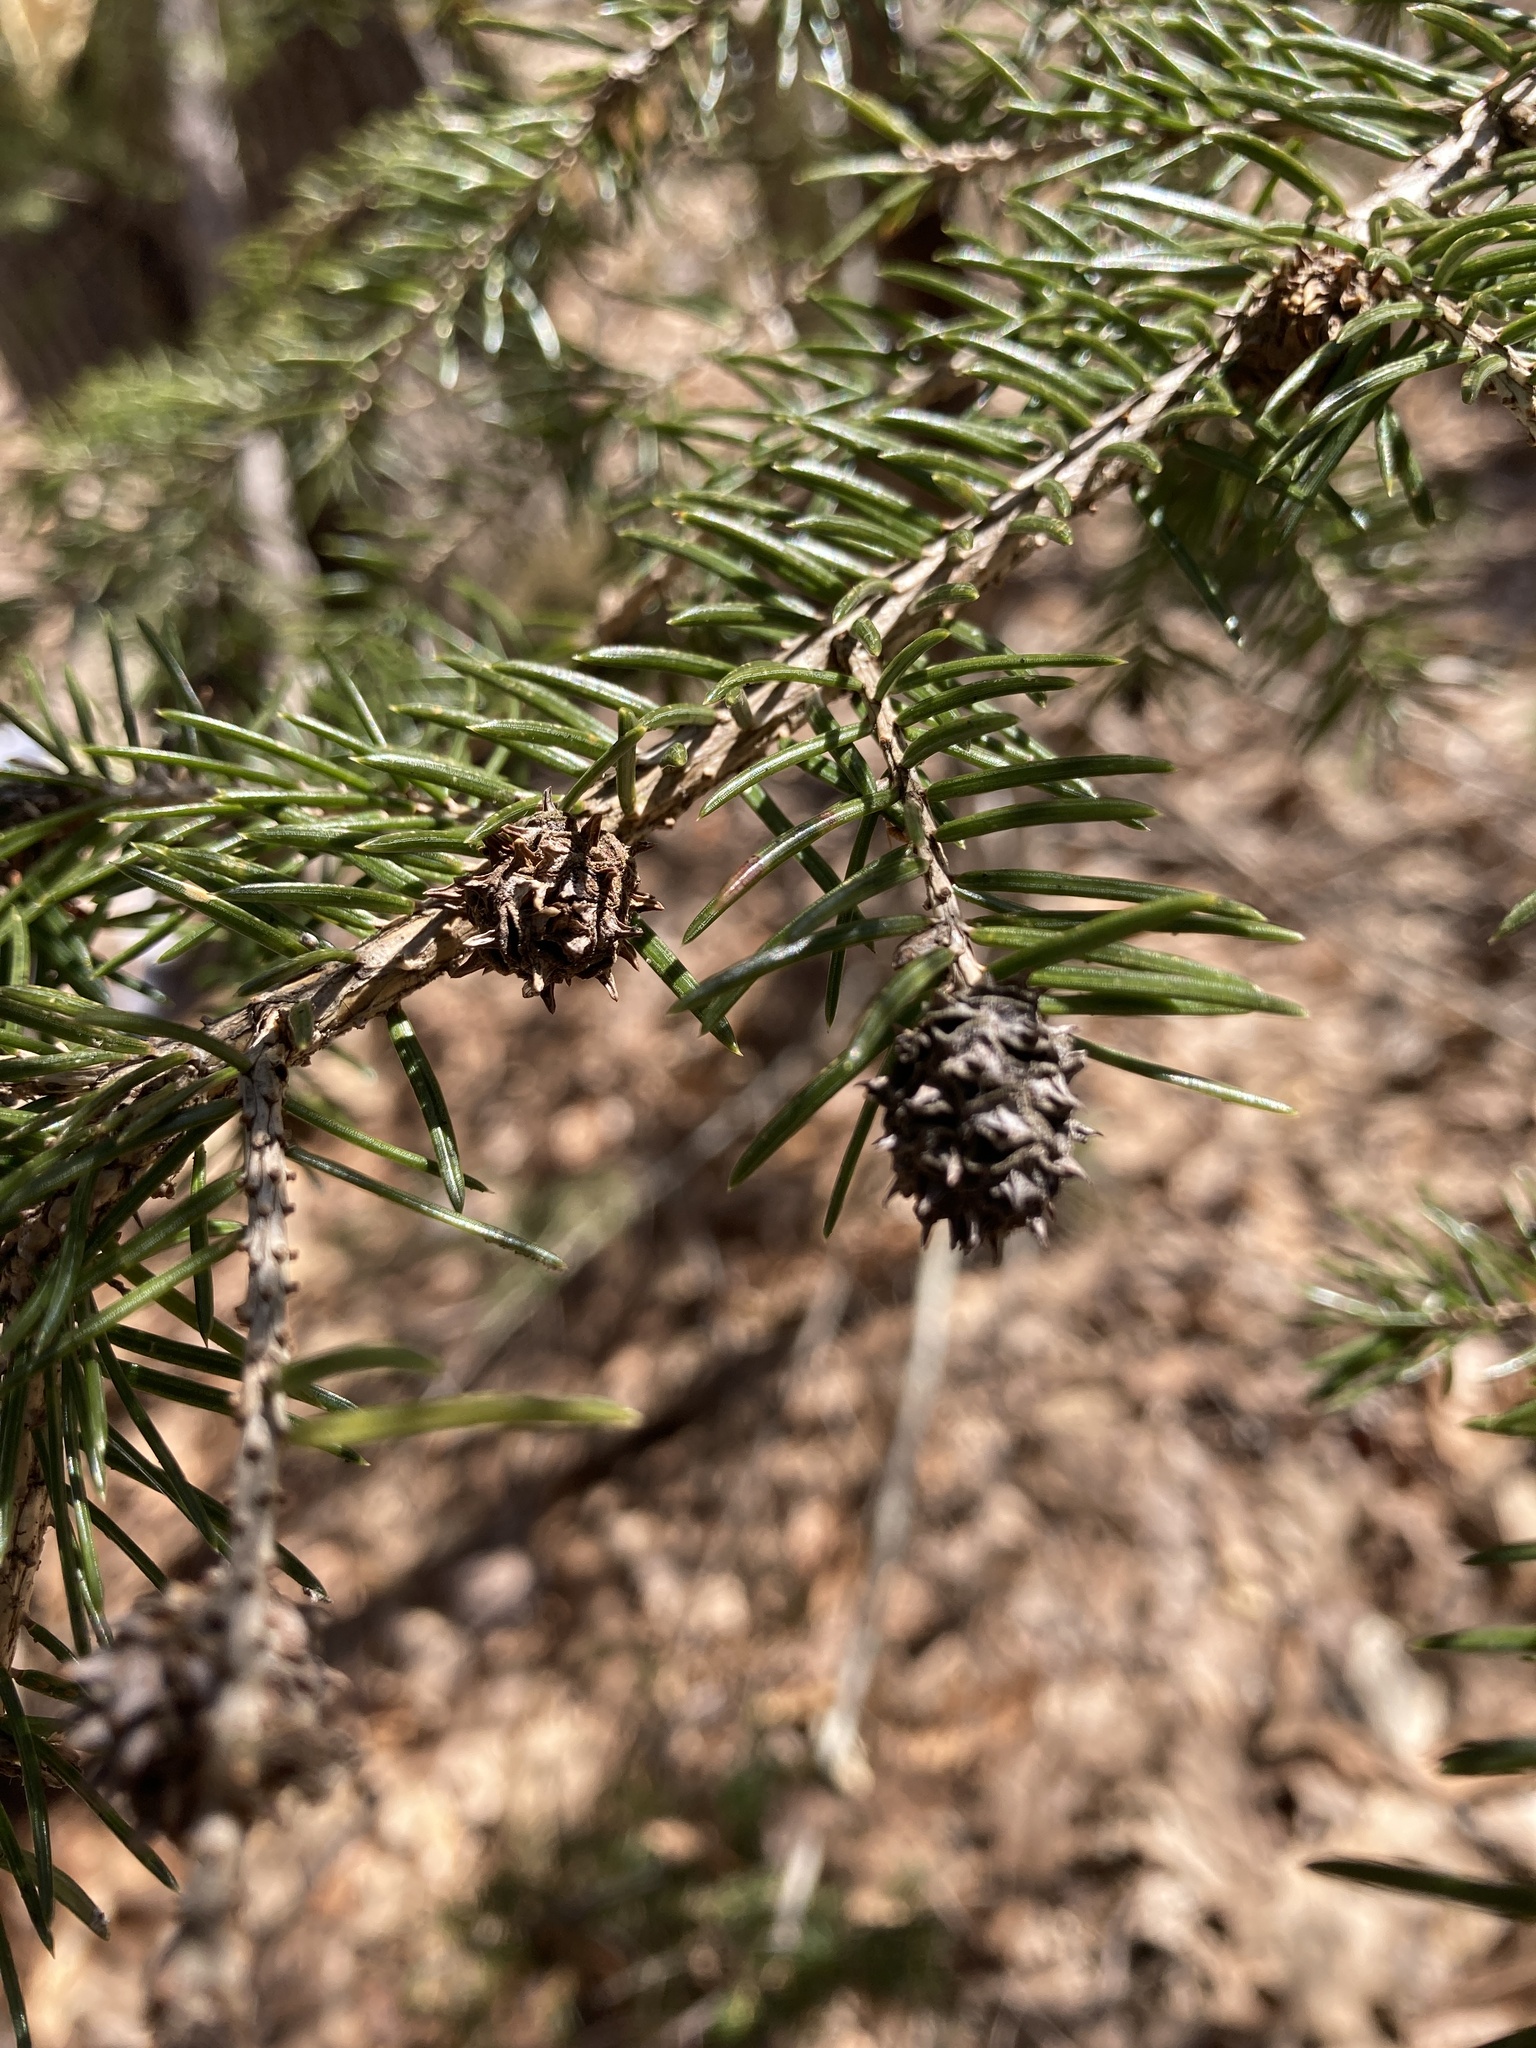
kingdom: Plantae
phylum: Tracheophyta
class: Pinopsida
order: Pinales
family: Pinaceae
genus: Picea
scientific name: Picea rubens
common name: Red spruce
